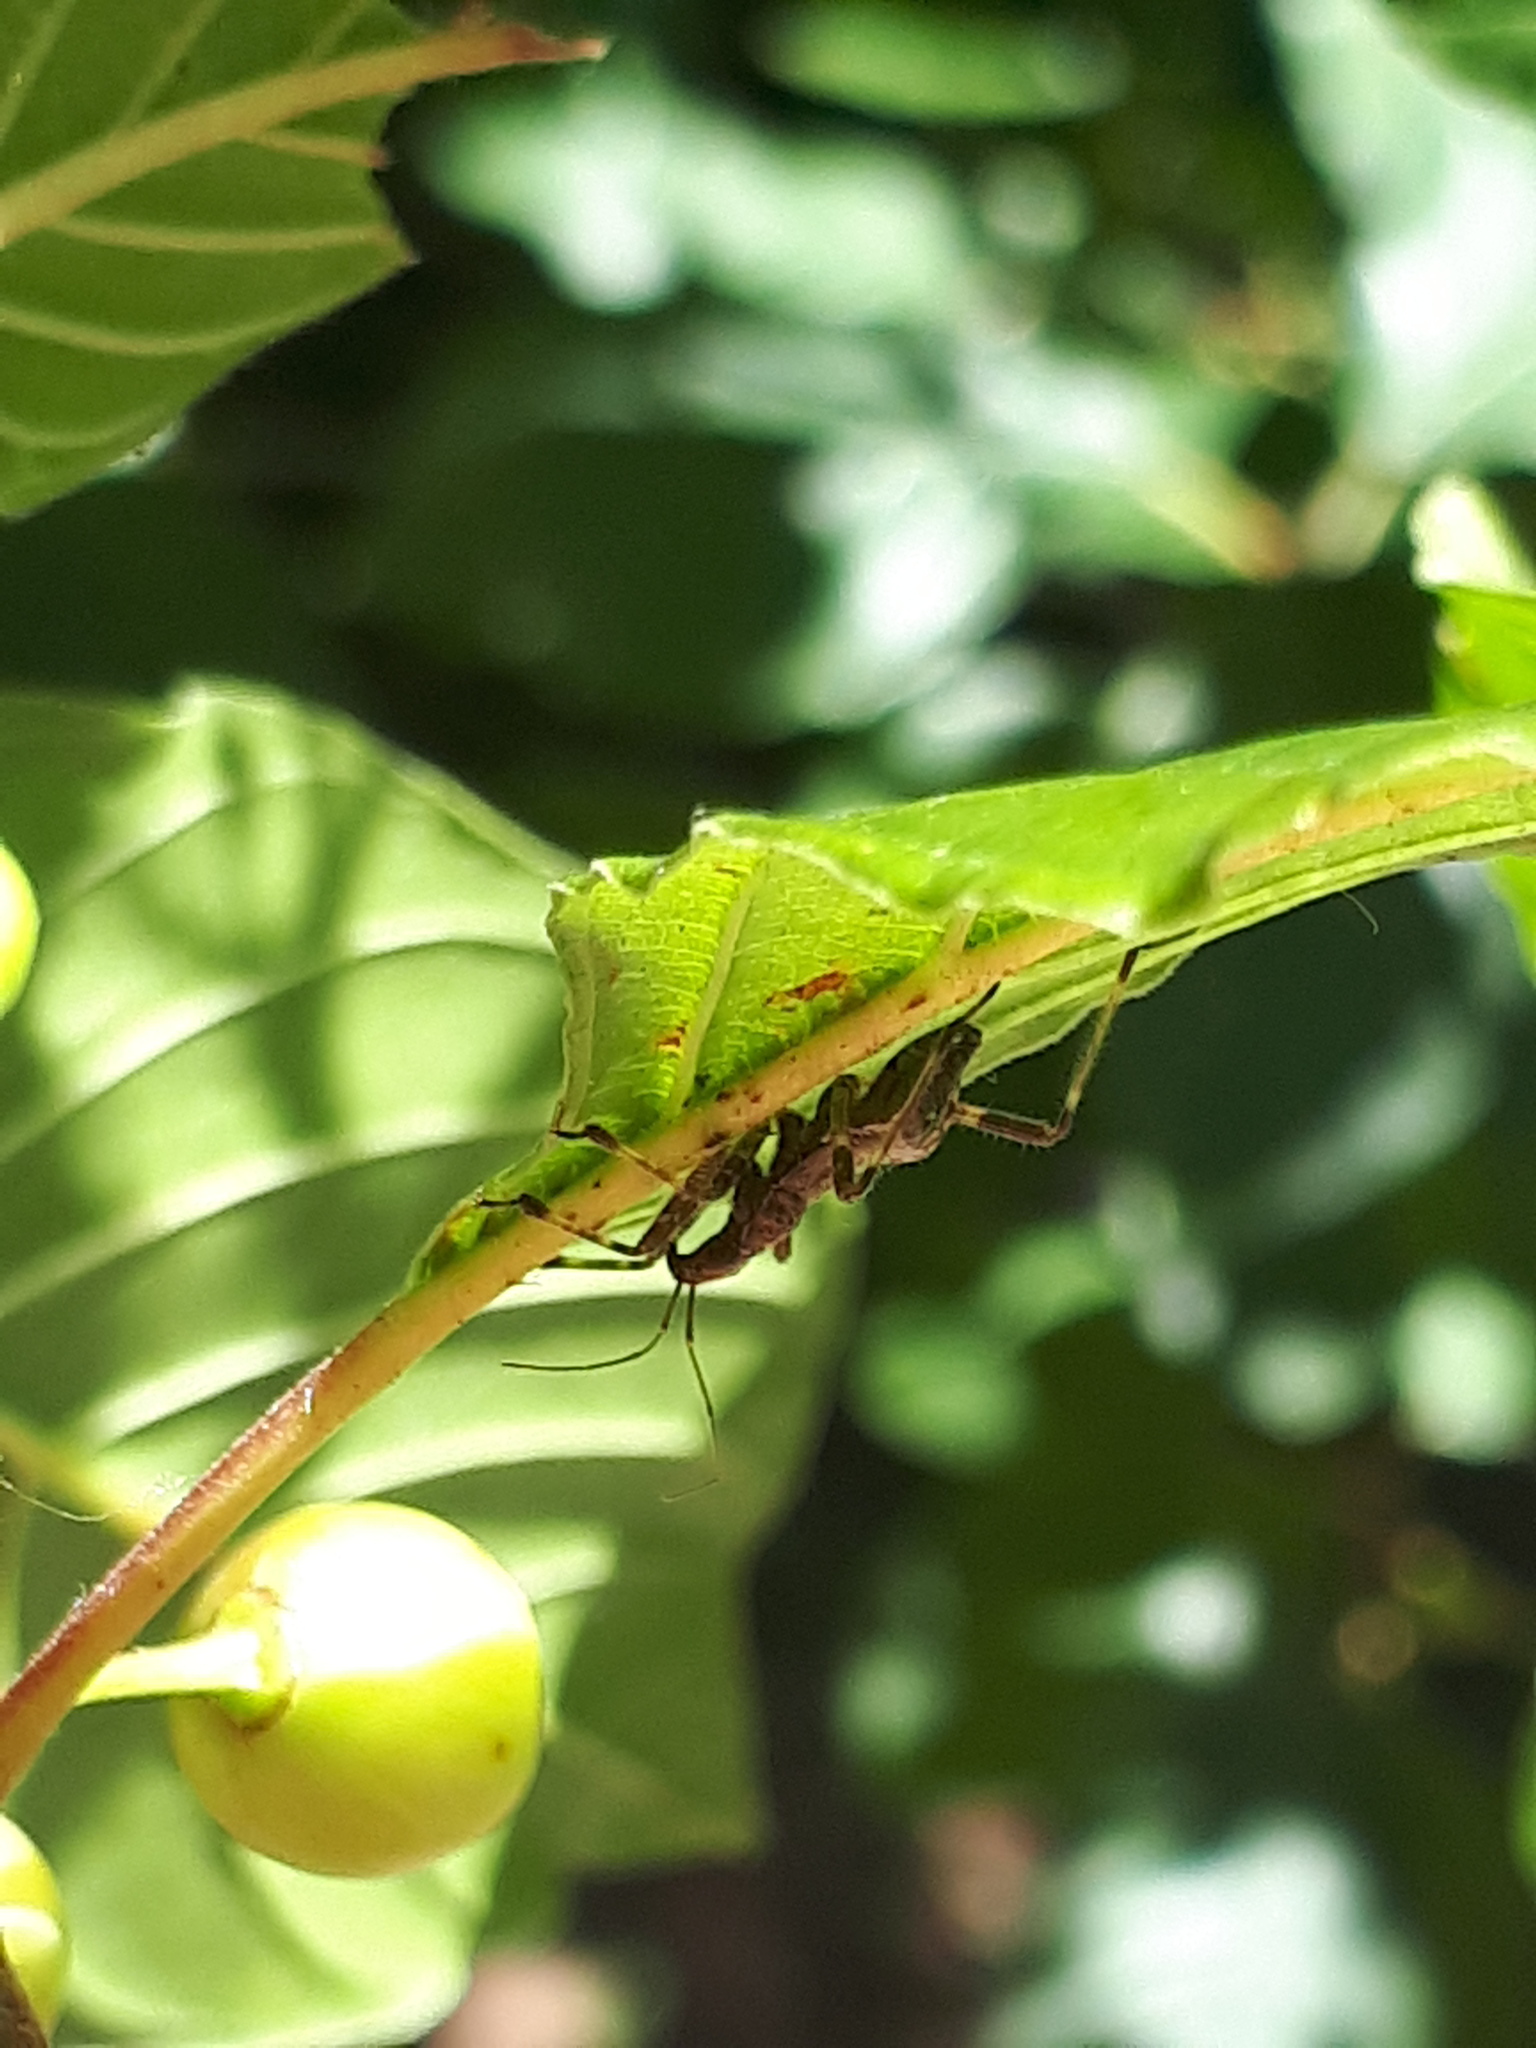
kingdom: Animalia
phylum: Arthropoda
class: Insecta
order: Hemiptera
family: Nabidae
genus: Himacerus
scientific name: Himacerus apterus
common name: Tree damsel bug
